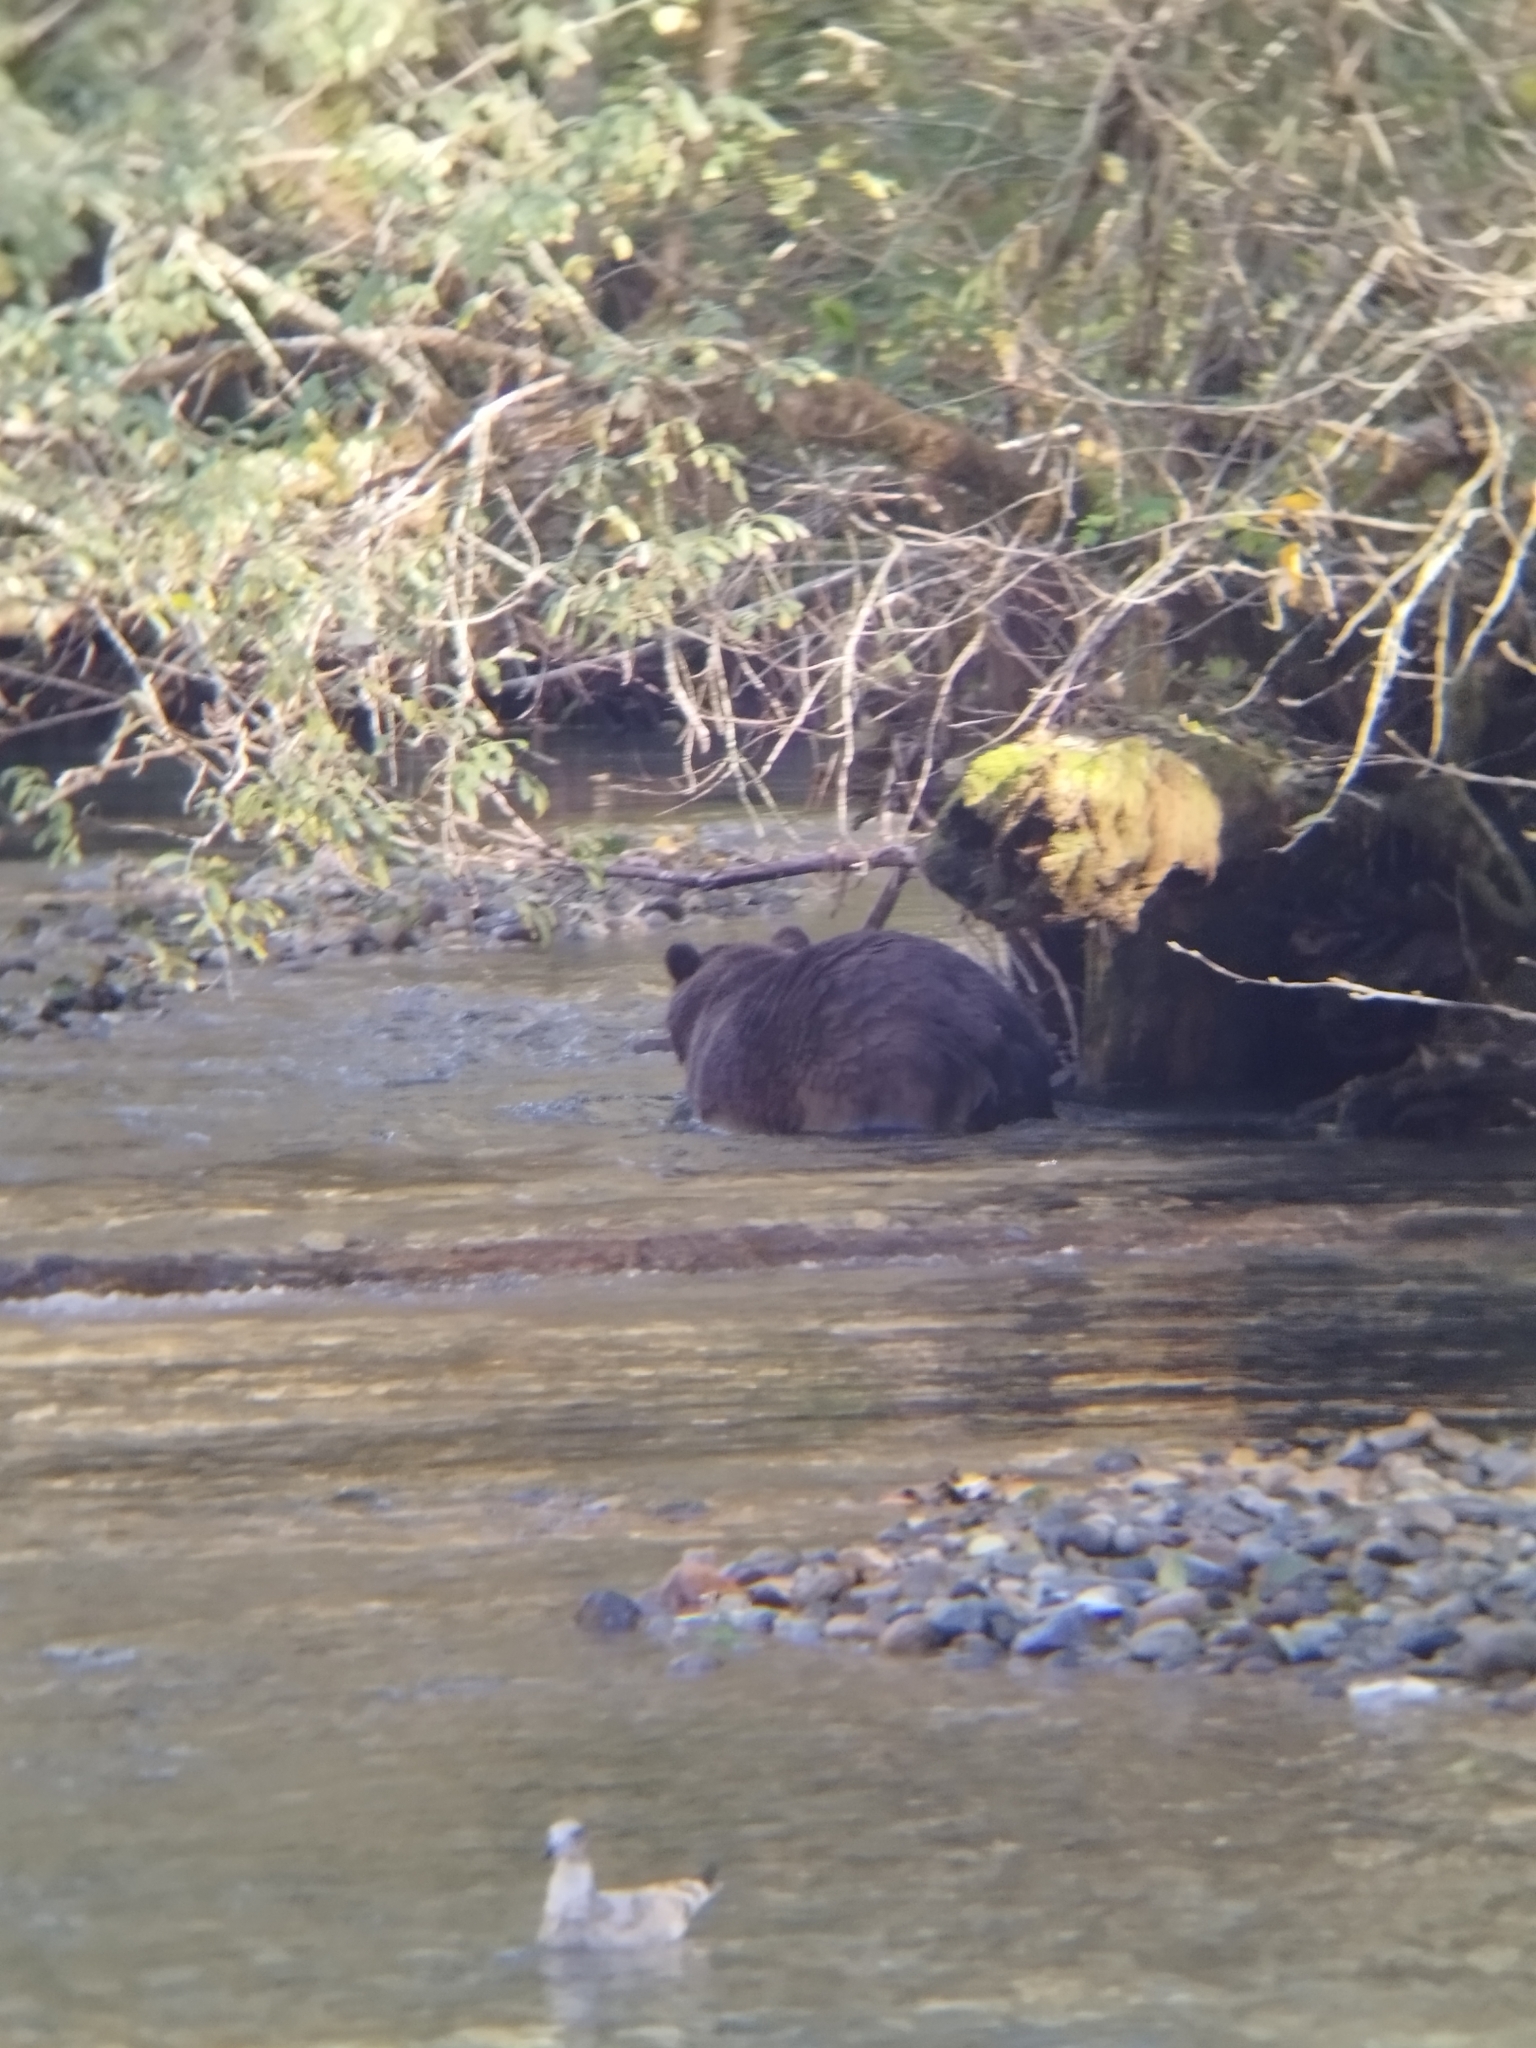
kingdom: Animalia
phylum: Chordata
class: Mammalia
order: Carnivora
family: Ursidae
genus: Ursus
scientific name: Ursus arctos
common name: Brown bear
